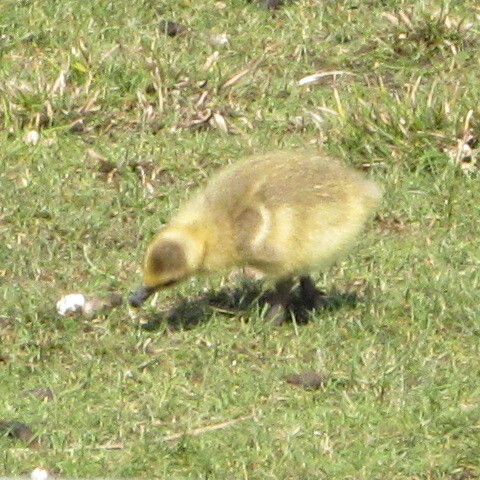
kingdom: Animalia
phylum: Chordata
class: Aves
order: Anseriformes
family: Anatidae
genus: Branta
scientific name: Branta canadensis
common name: Canada goose
